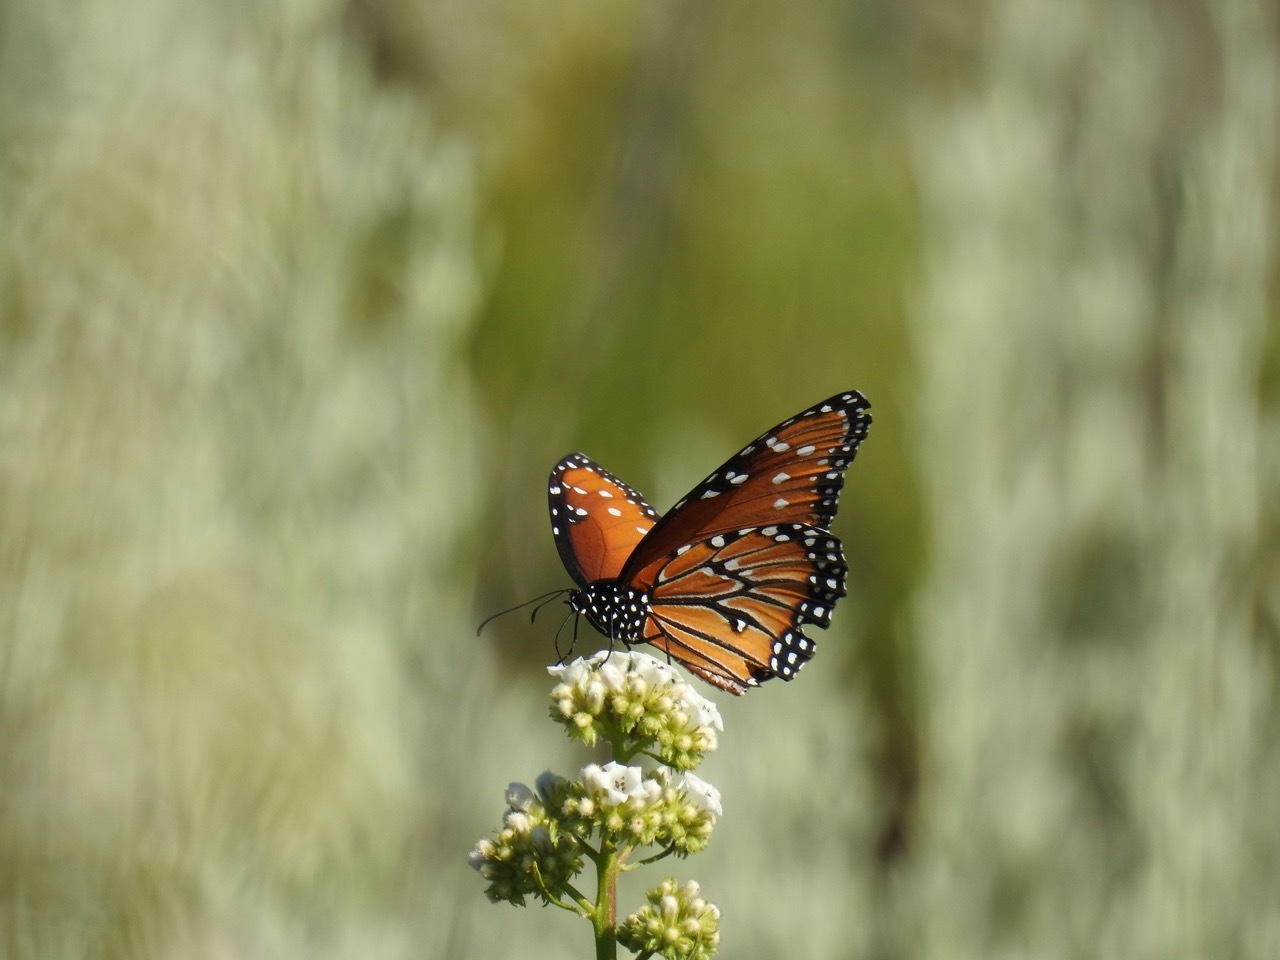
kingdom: Animalia
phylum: Arthropoda
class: Insecta
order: Lepidoptera
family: Nymphalidae
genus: Danaus
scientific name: Danaus gilippus
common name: Queen
